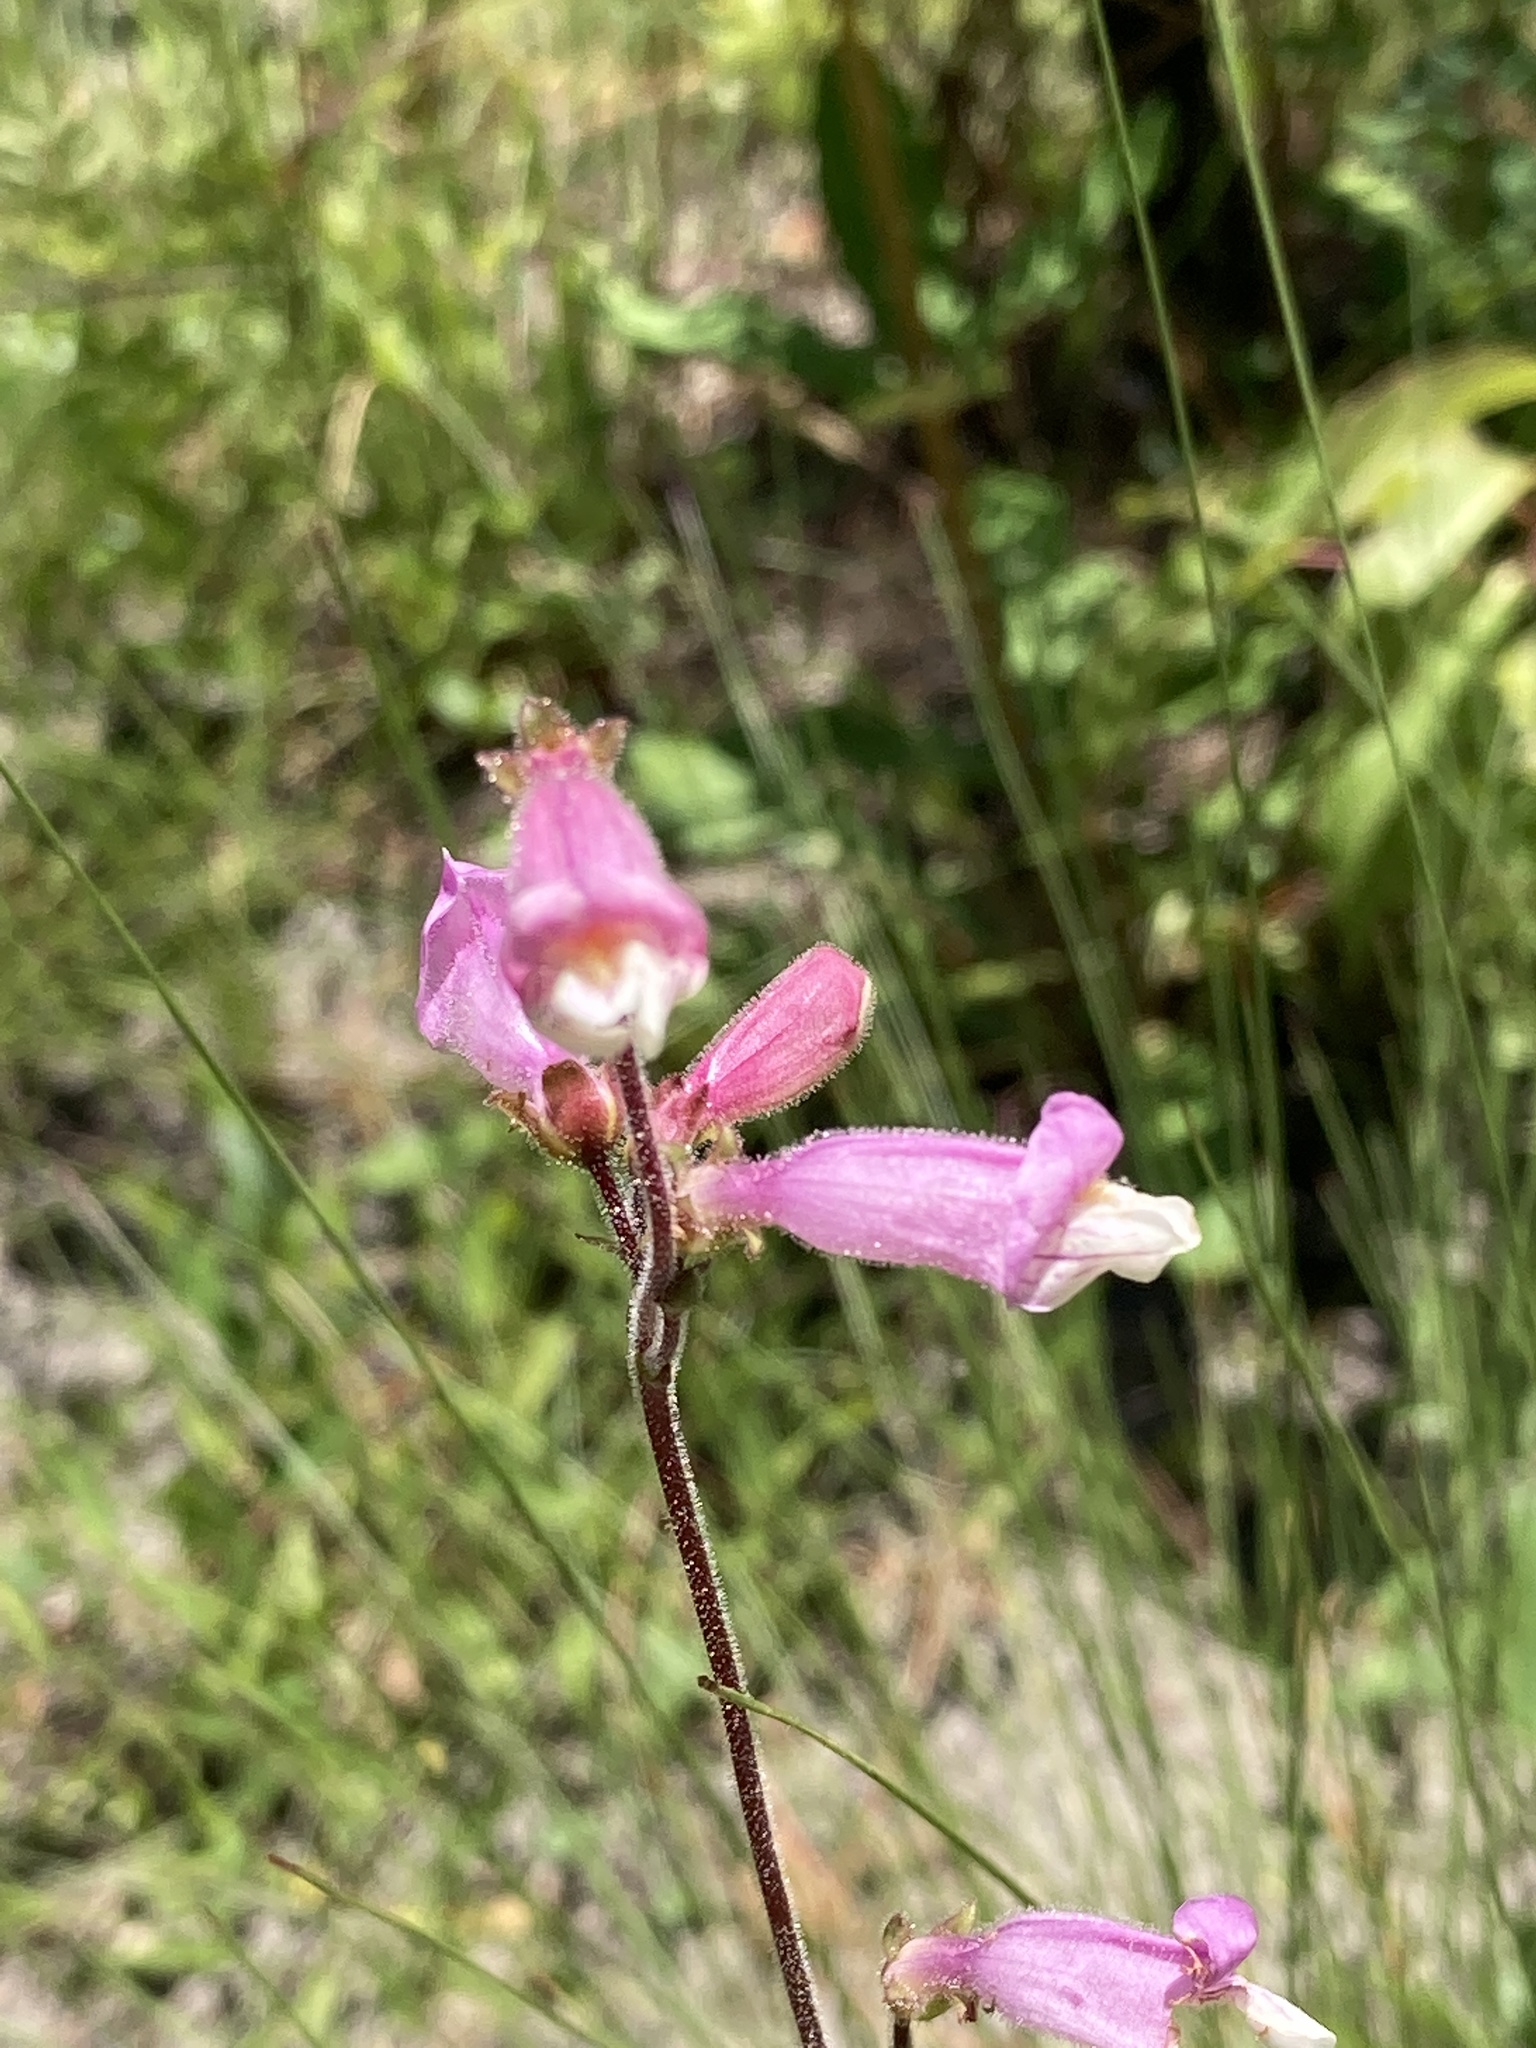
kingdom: Plantae
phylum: Tracheophyta
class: Magnoliopsida
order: Lamiales
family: Plantaginaceae
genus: Penstemon
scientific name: Penstemon australis
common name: Southeastern beardtongue
